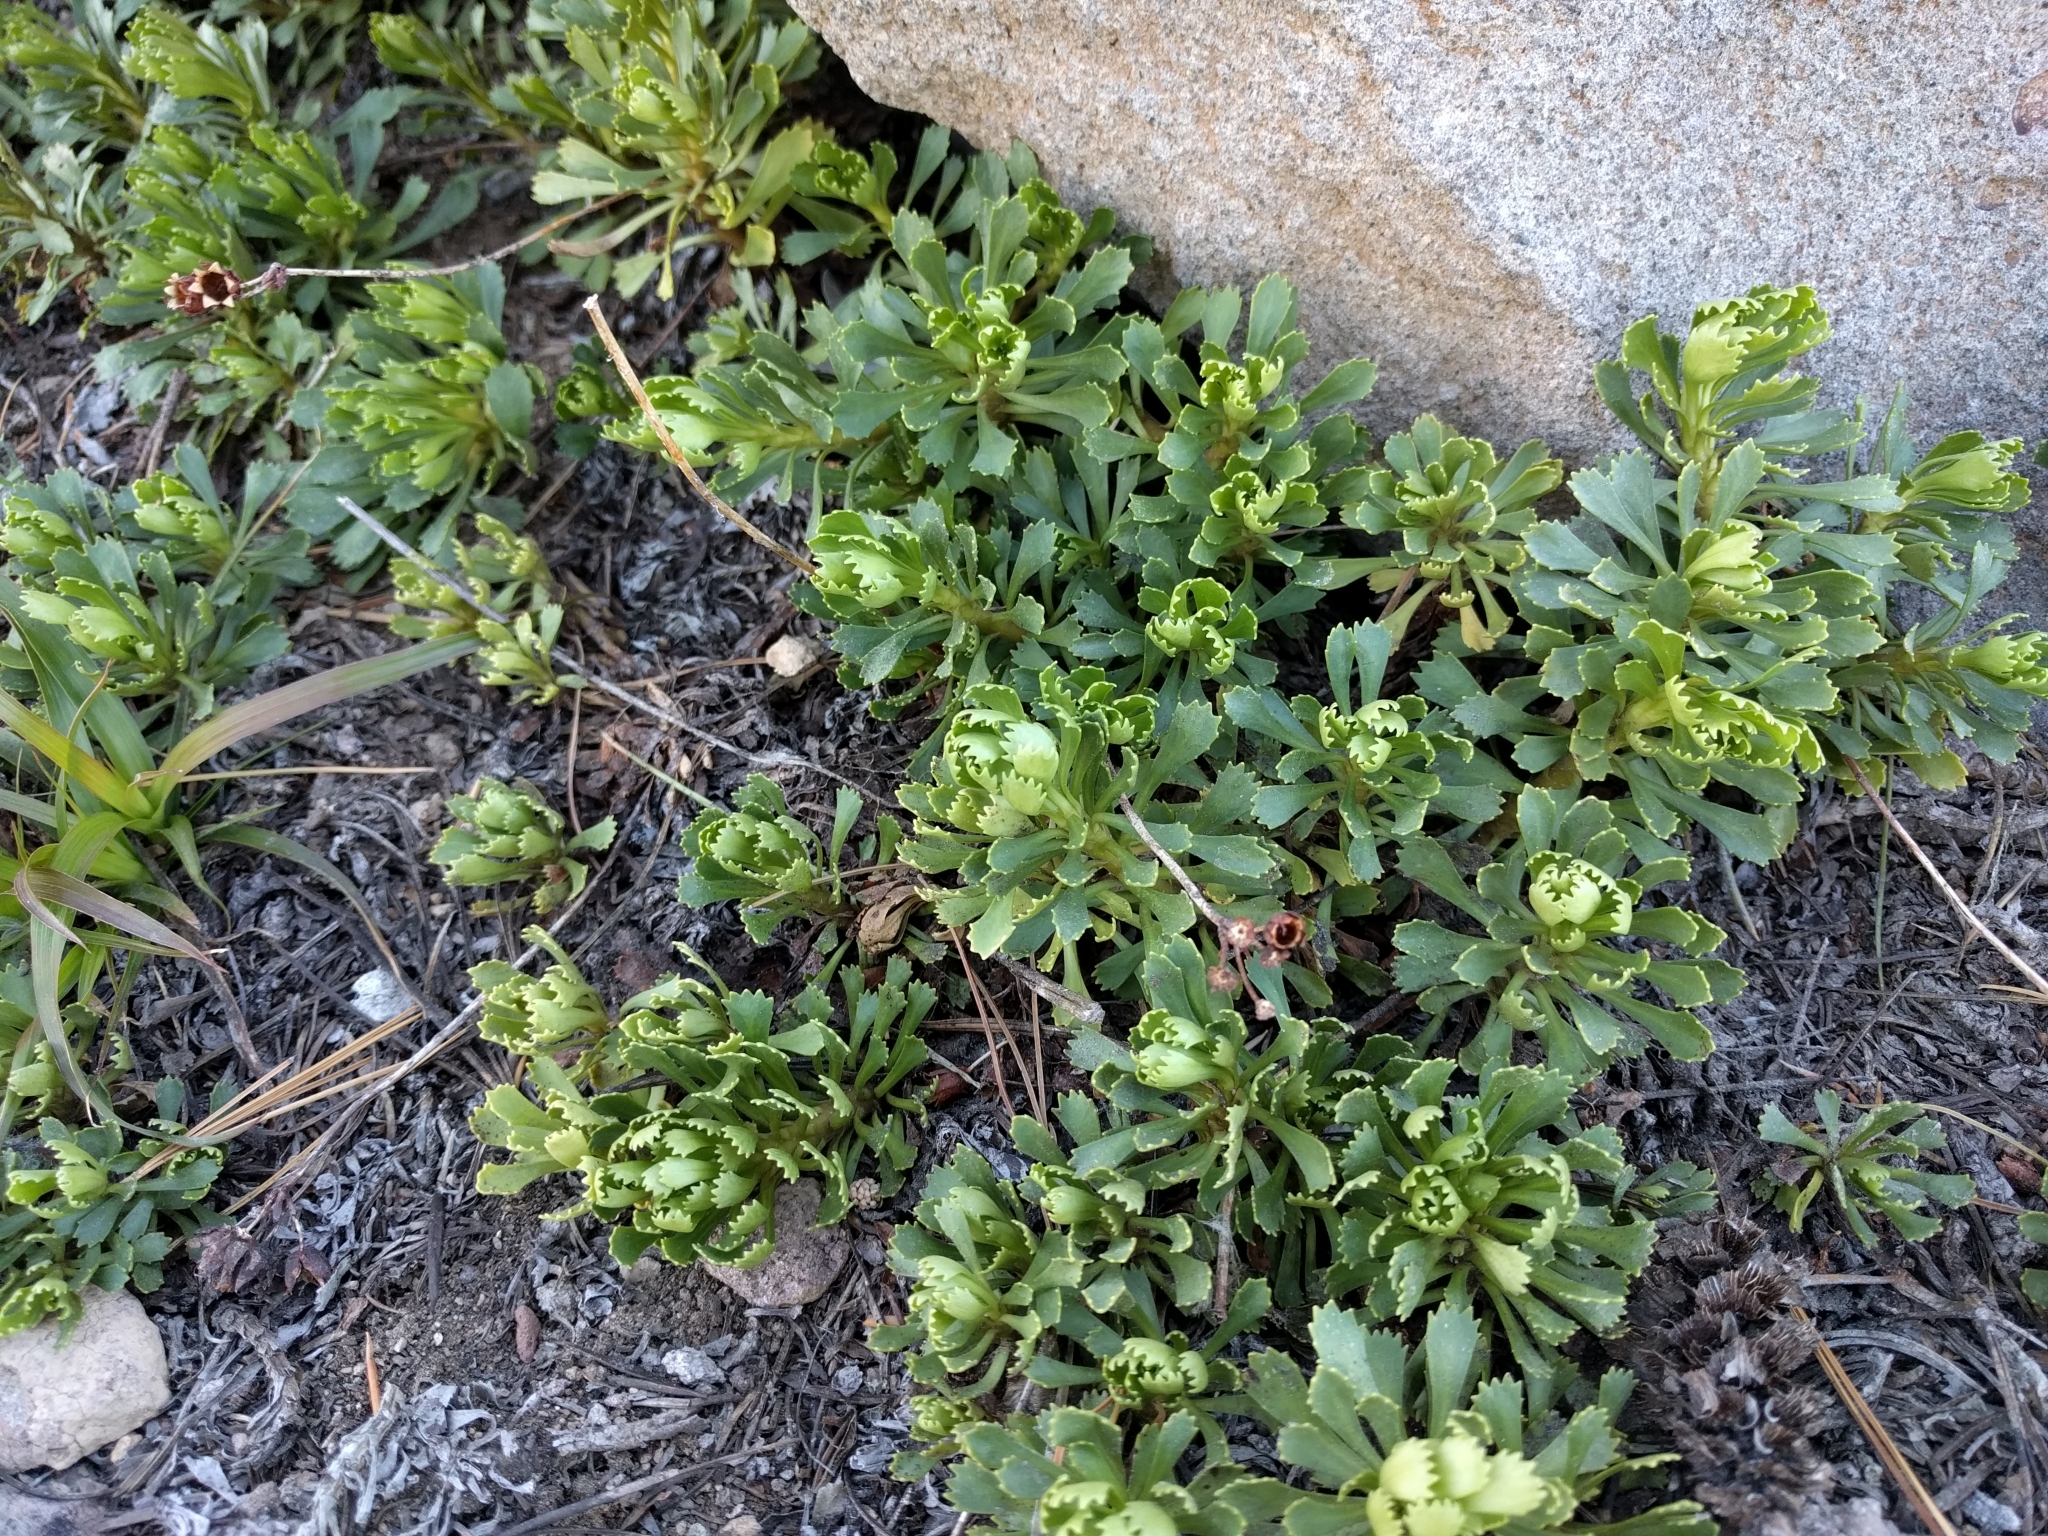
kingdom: Plantae
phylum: Tracheophyta
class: Magnoliopsida
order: Ericales
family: Primulaceae
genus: Primula
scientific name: Primula suffrutescens
